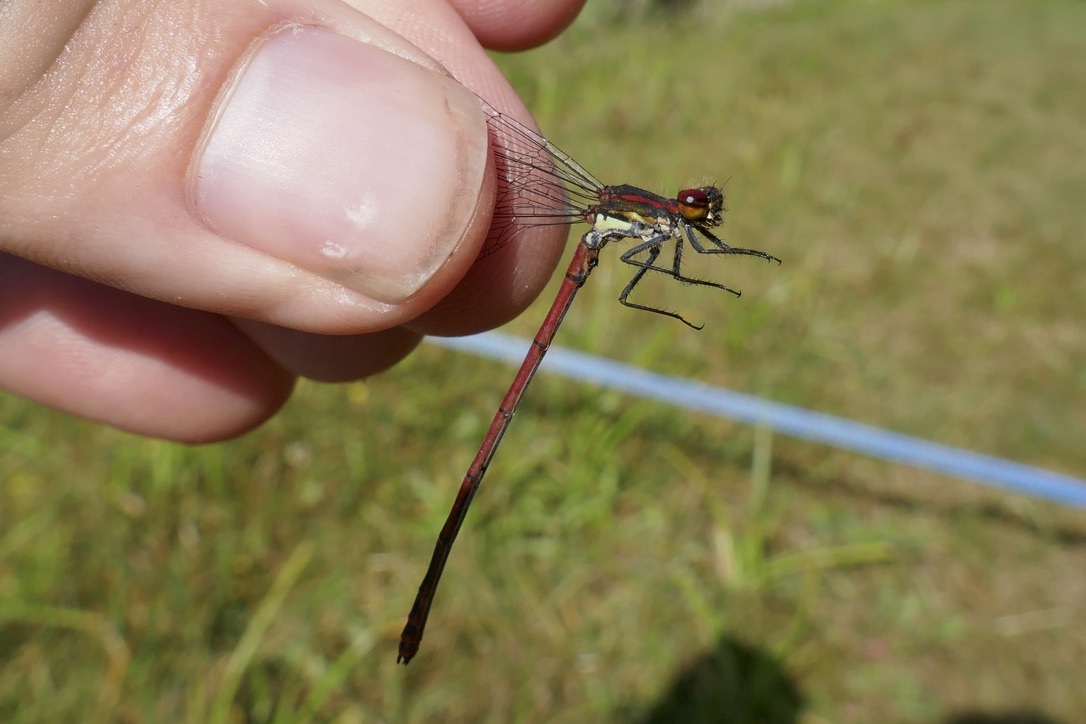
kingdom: Animalia
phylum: Arthropoda
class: Insecta
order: Odonata
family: Coenagrionidae
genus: Pyrrhosoma
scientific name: Pyrrhosoma nymphula
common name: Large red damsel
